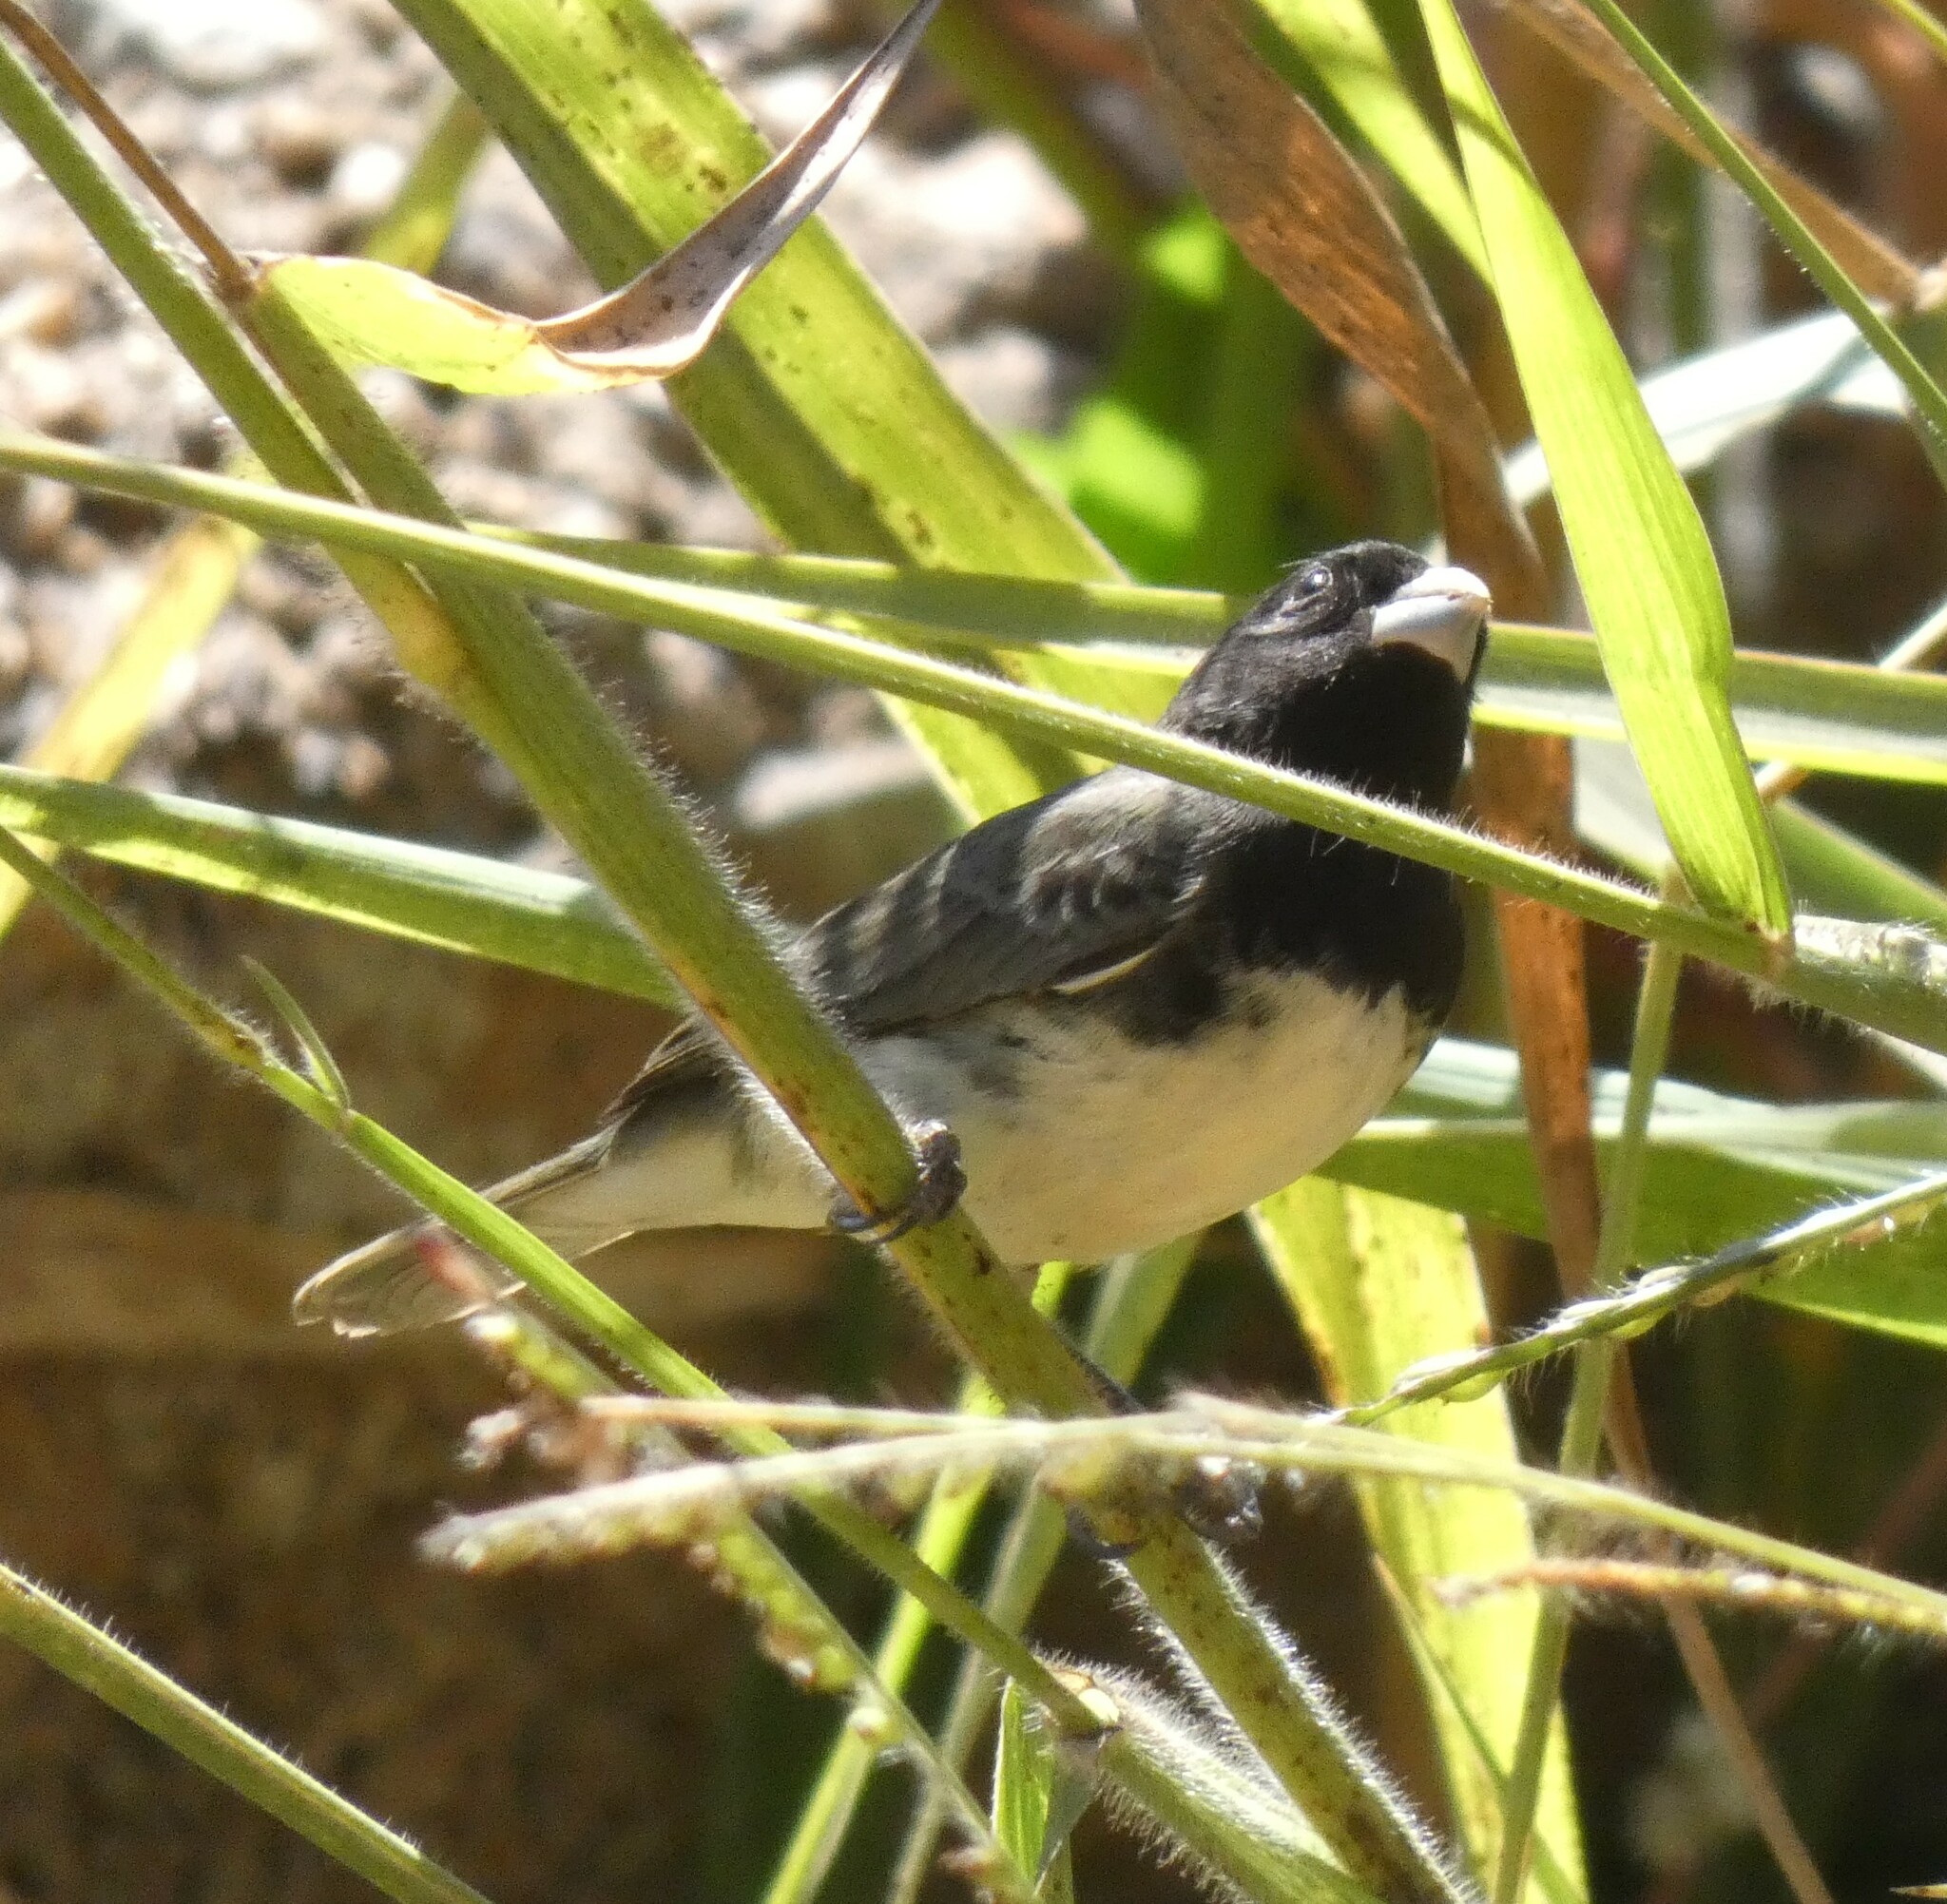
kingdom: Animalia
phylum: Chordata
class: Aves
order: Passeriformes
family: Thraupidae
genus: Sporophila
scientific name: Sporophila nigricollis
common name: Yellow-bellied seedeater
